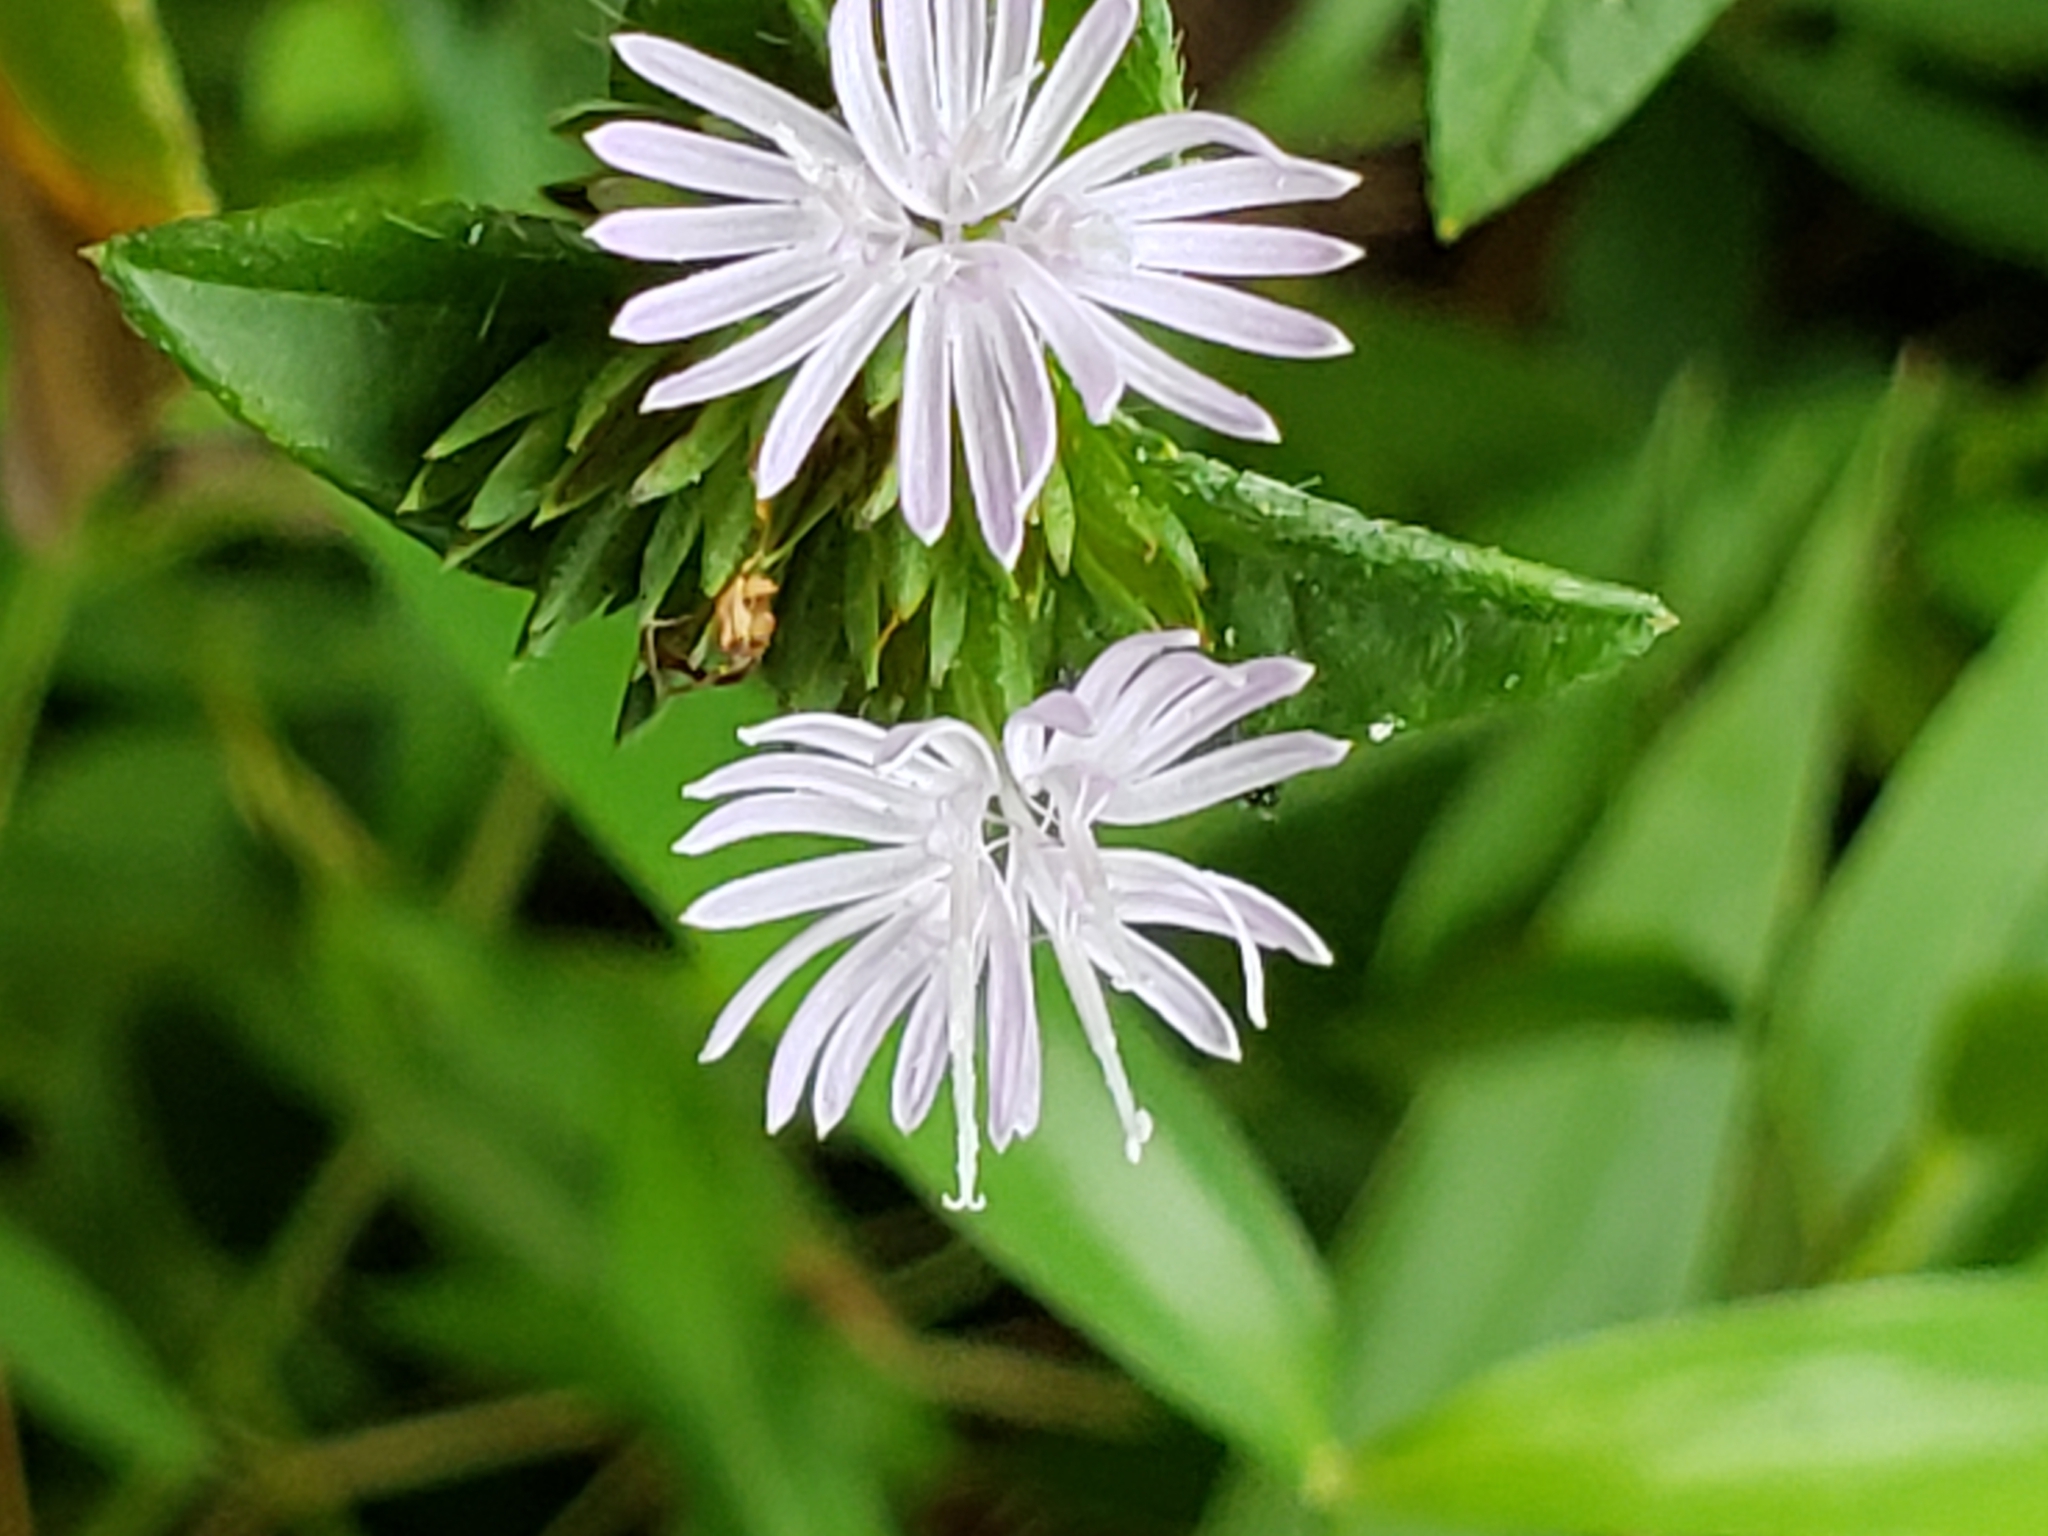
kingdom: Plantae
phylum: Tracheophyta
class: Magnoliopsida
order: Asterales
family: Asteraceae
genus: Elephantopus
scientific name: Elephantopus carolinianus
